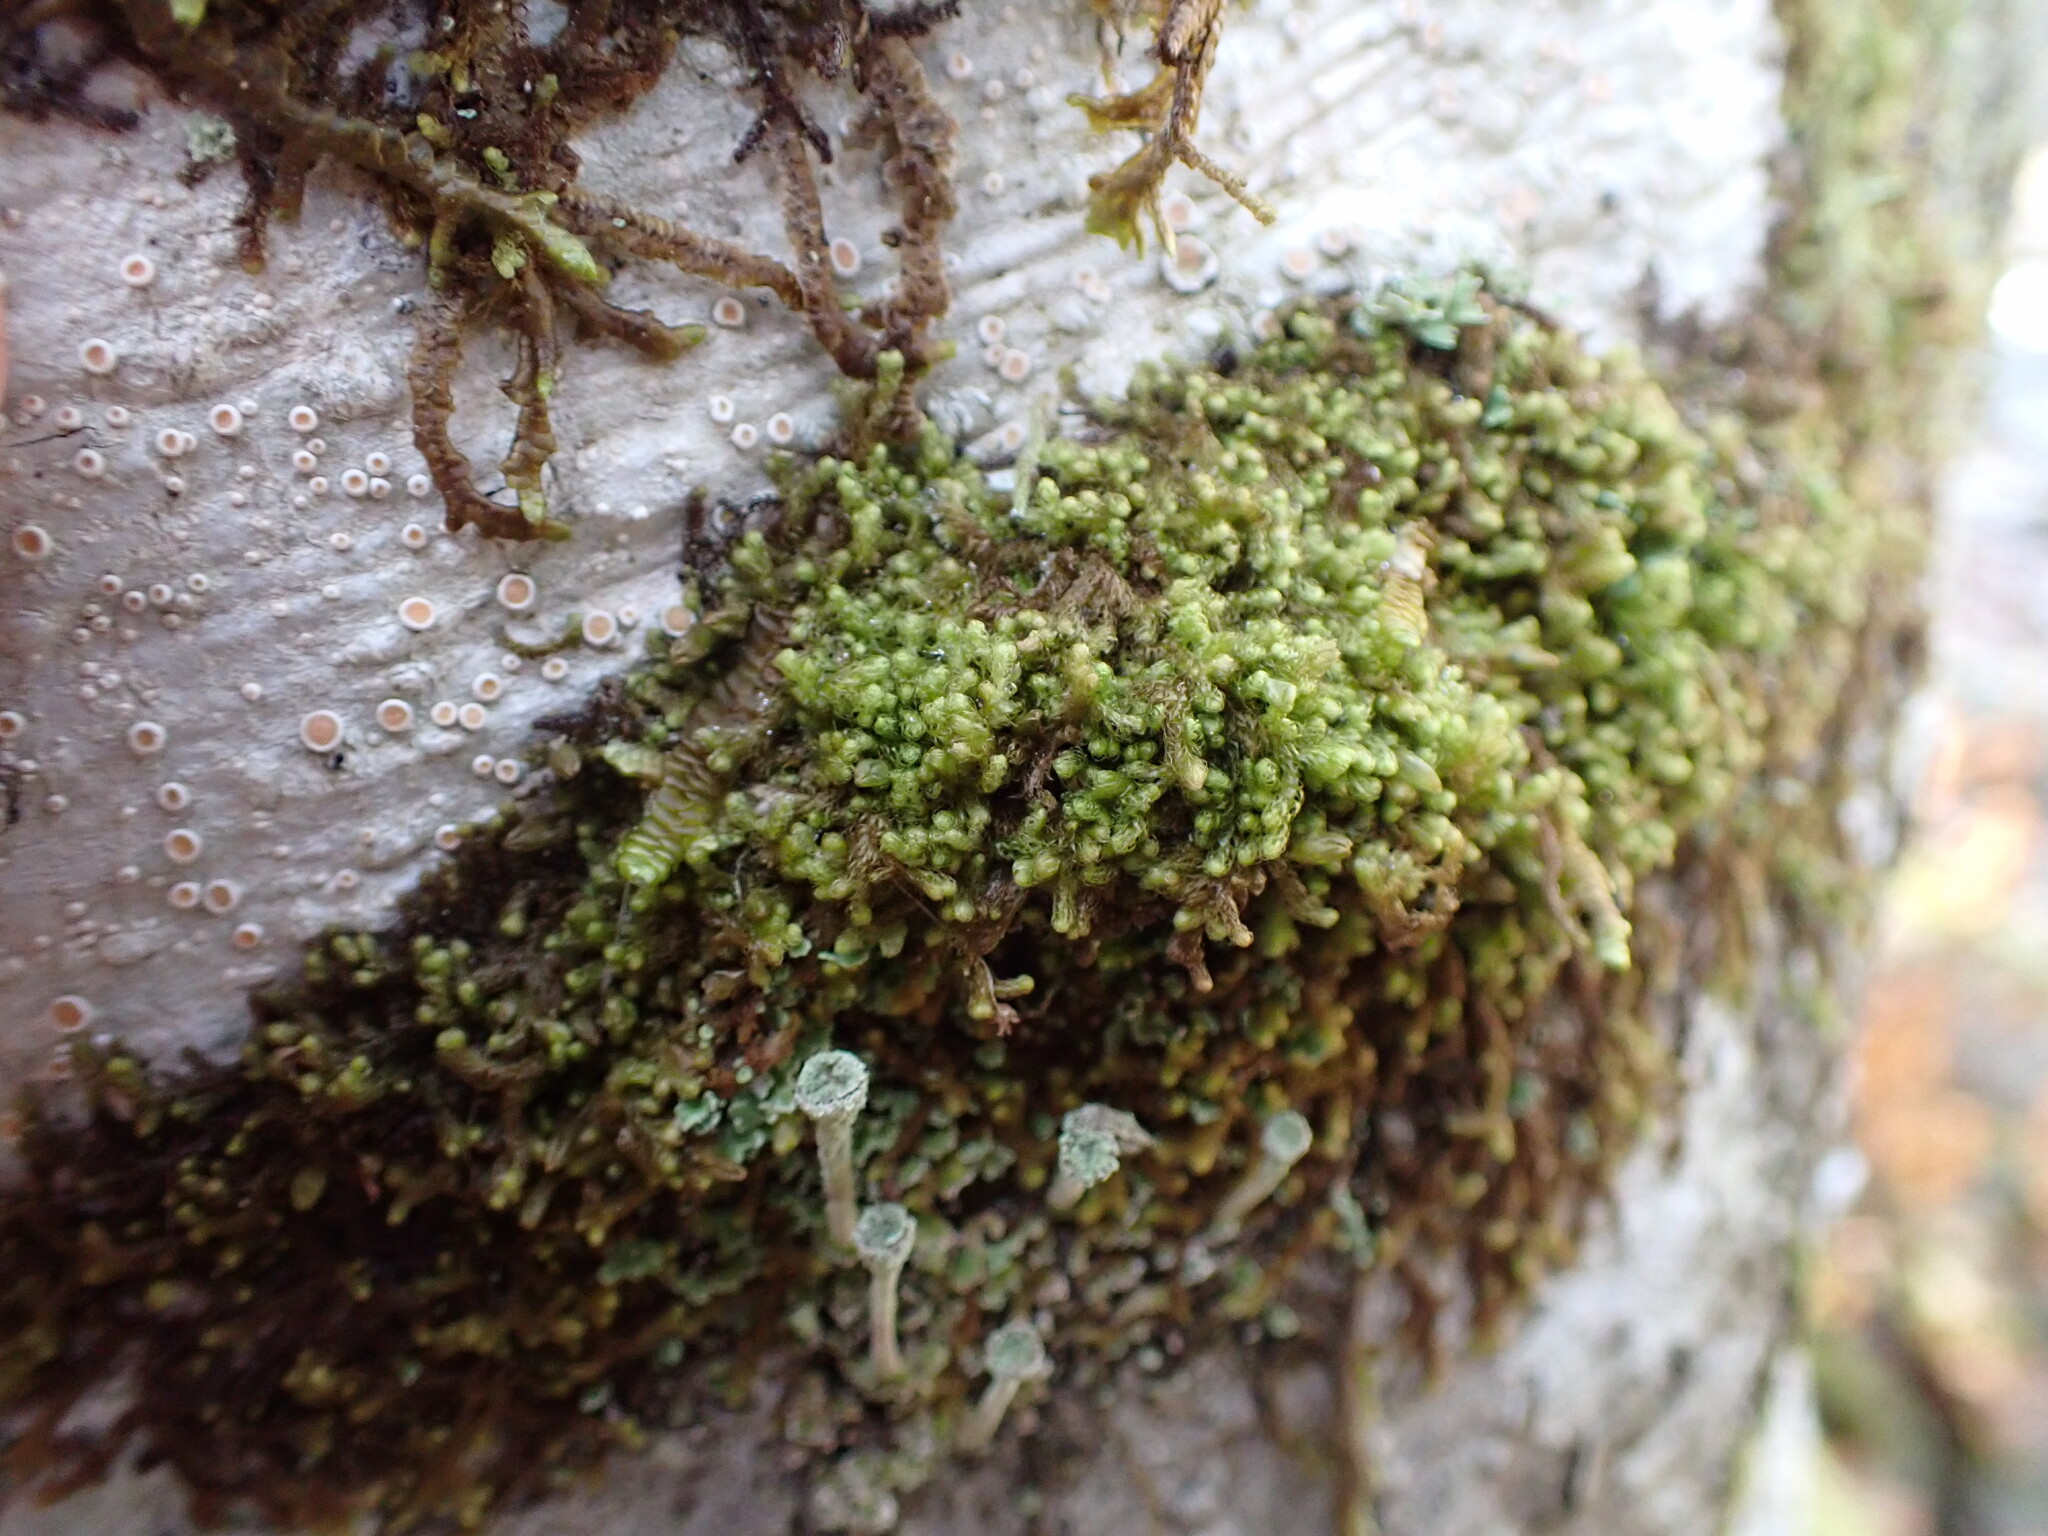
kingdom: Plantae
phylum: Marchantiophyta
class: Jungermanniopsida
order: Ptilidiales
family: Ptilidiaceae
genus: Ptilidium
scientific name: Ptilidium californicum
